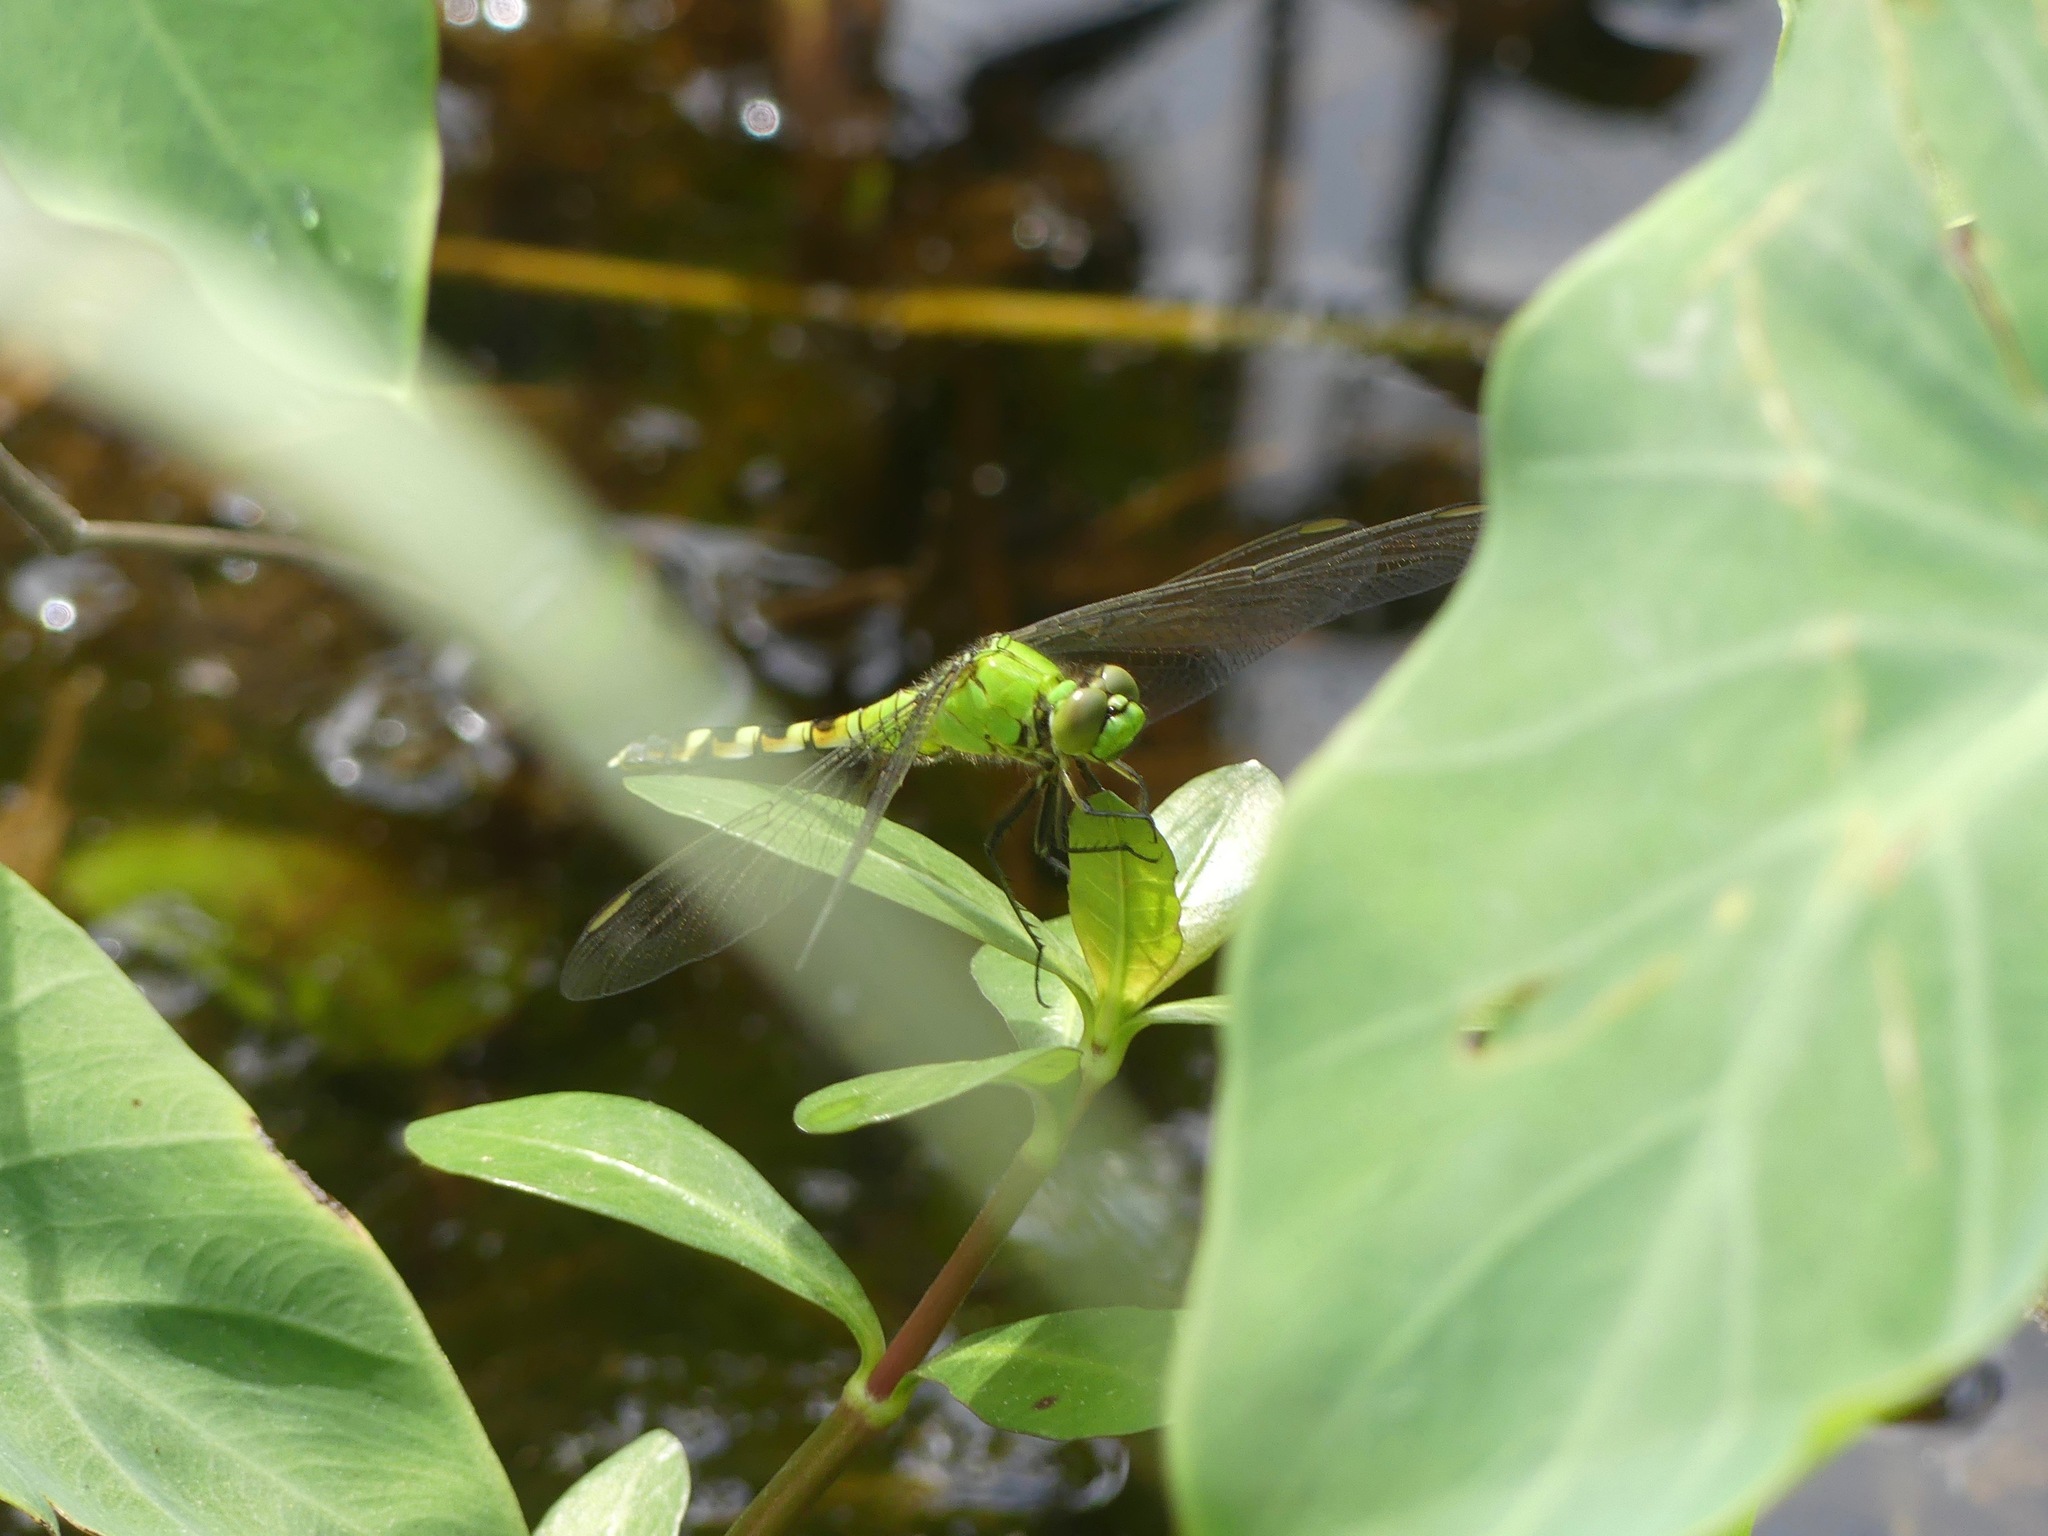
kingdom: Animalia
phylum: Arthropoda
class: Insecta
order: Odonata
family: Libellulidae
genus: Erythemis
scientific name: Erythemis simplicicollis
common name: Eastern pondhawk
